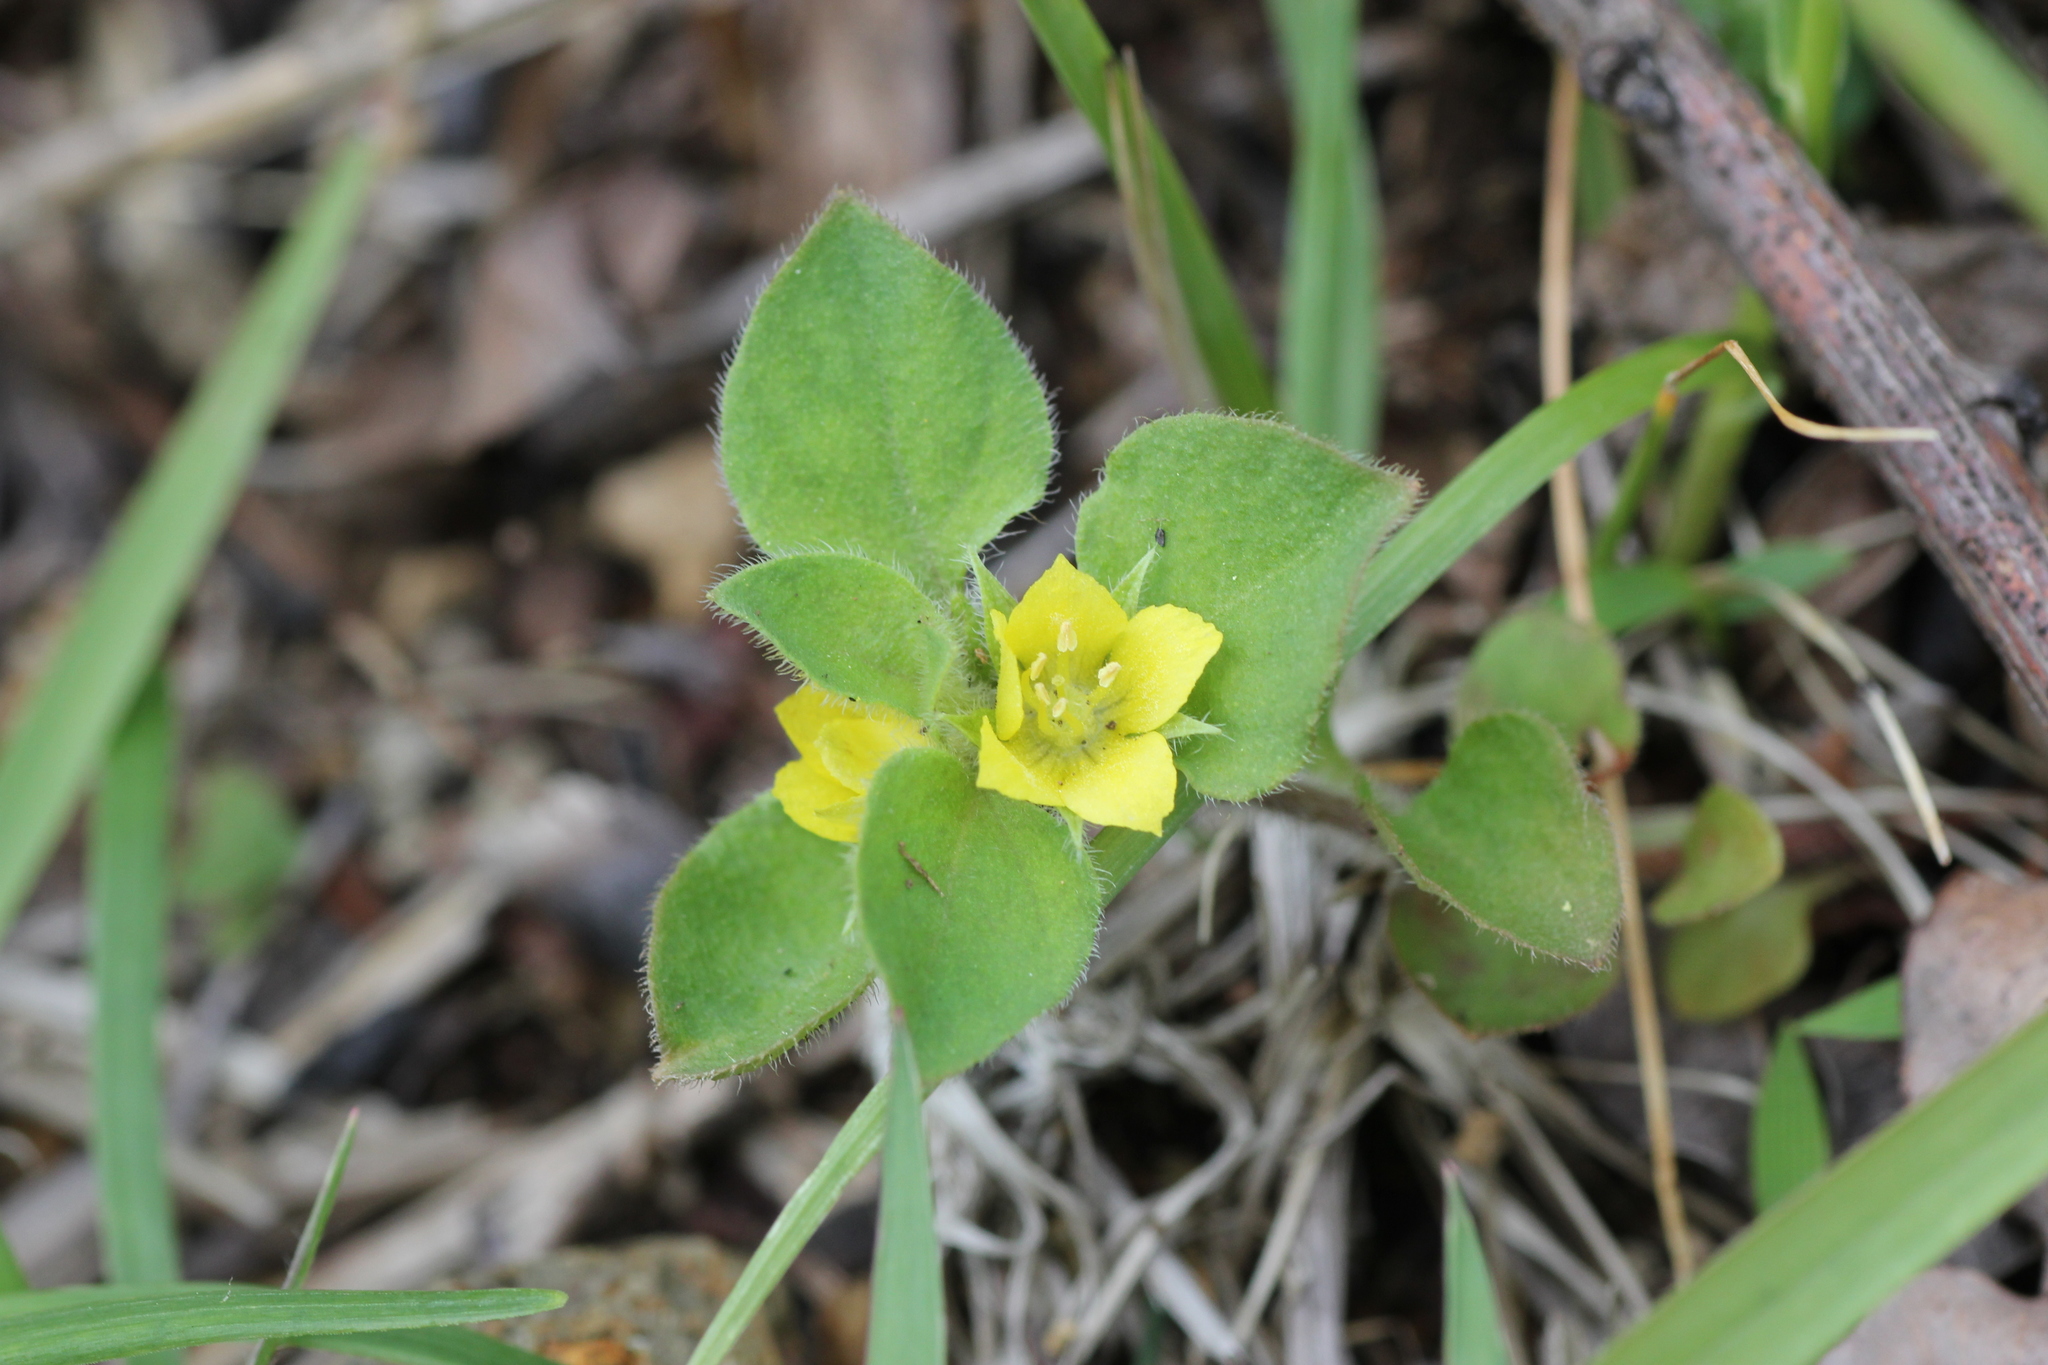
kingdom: Plantae
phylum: Tracheophyta
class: Magnoliopsida
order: Ericales
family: Primulaceae
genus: Lysimachia
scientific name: Lysimachia japonica
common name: Japanese yellow loosestrife
